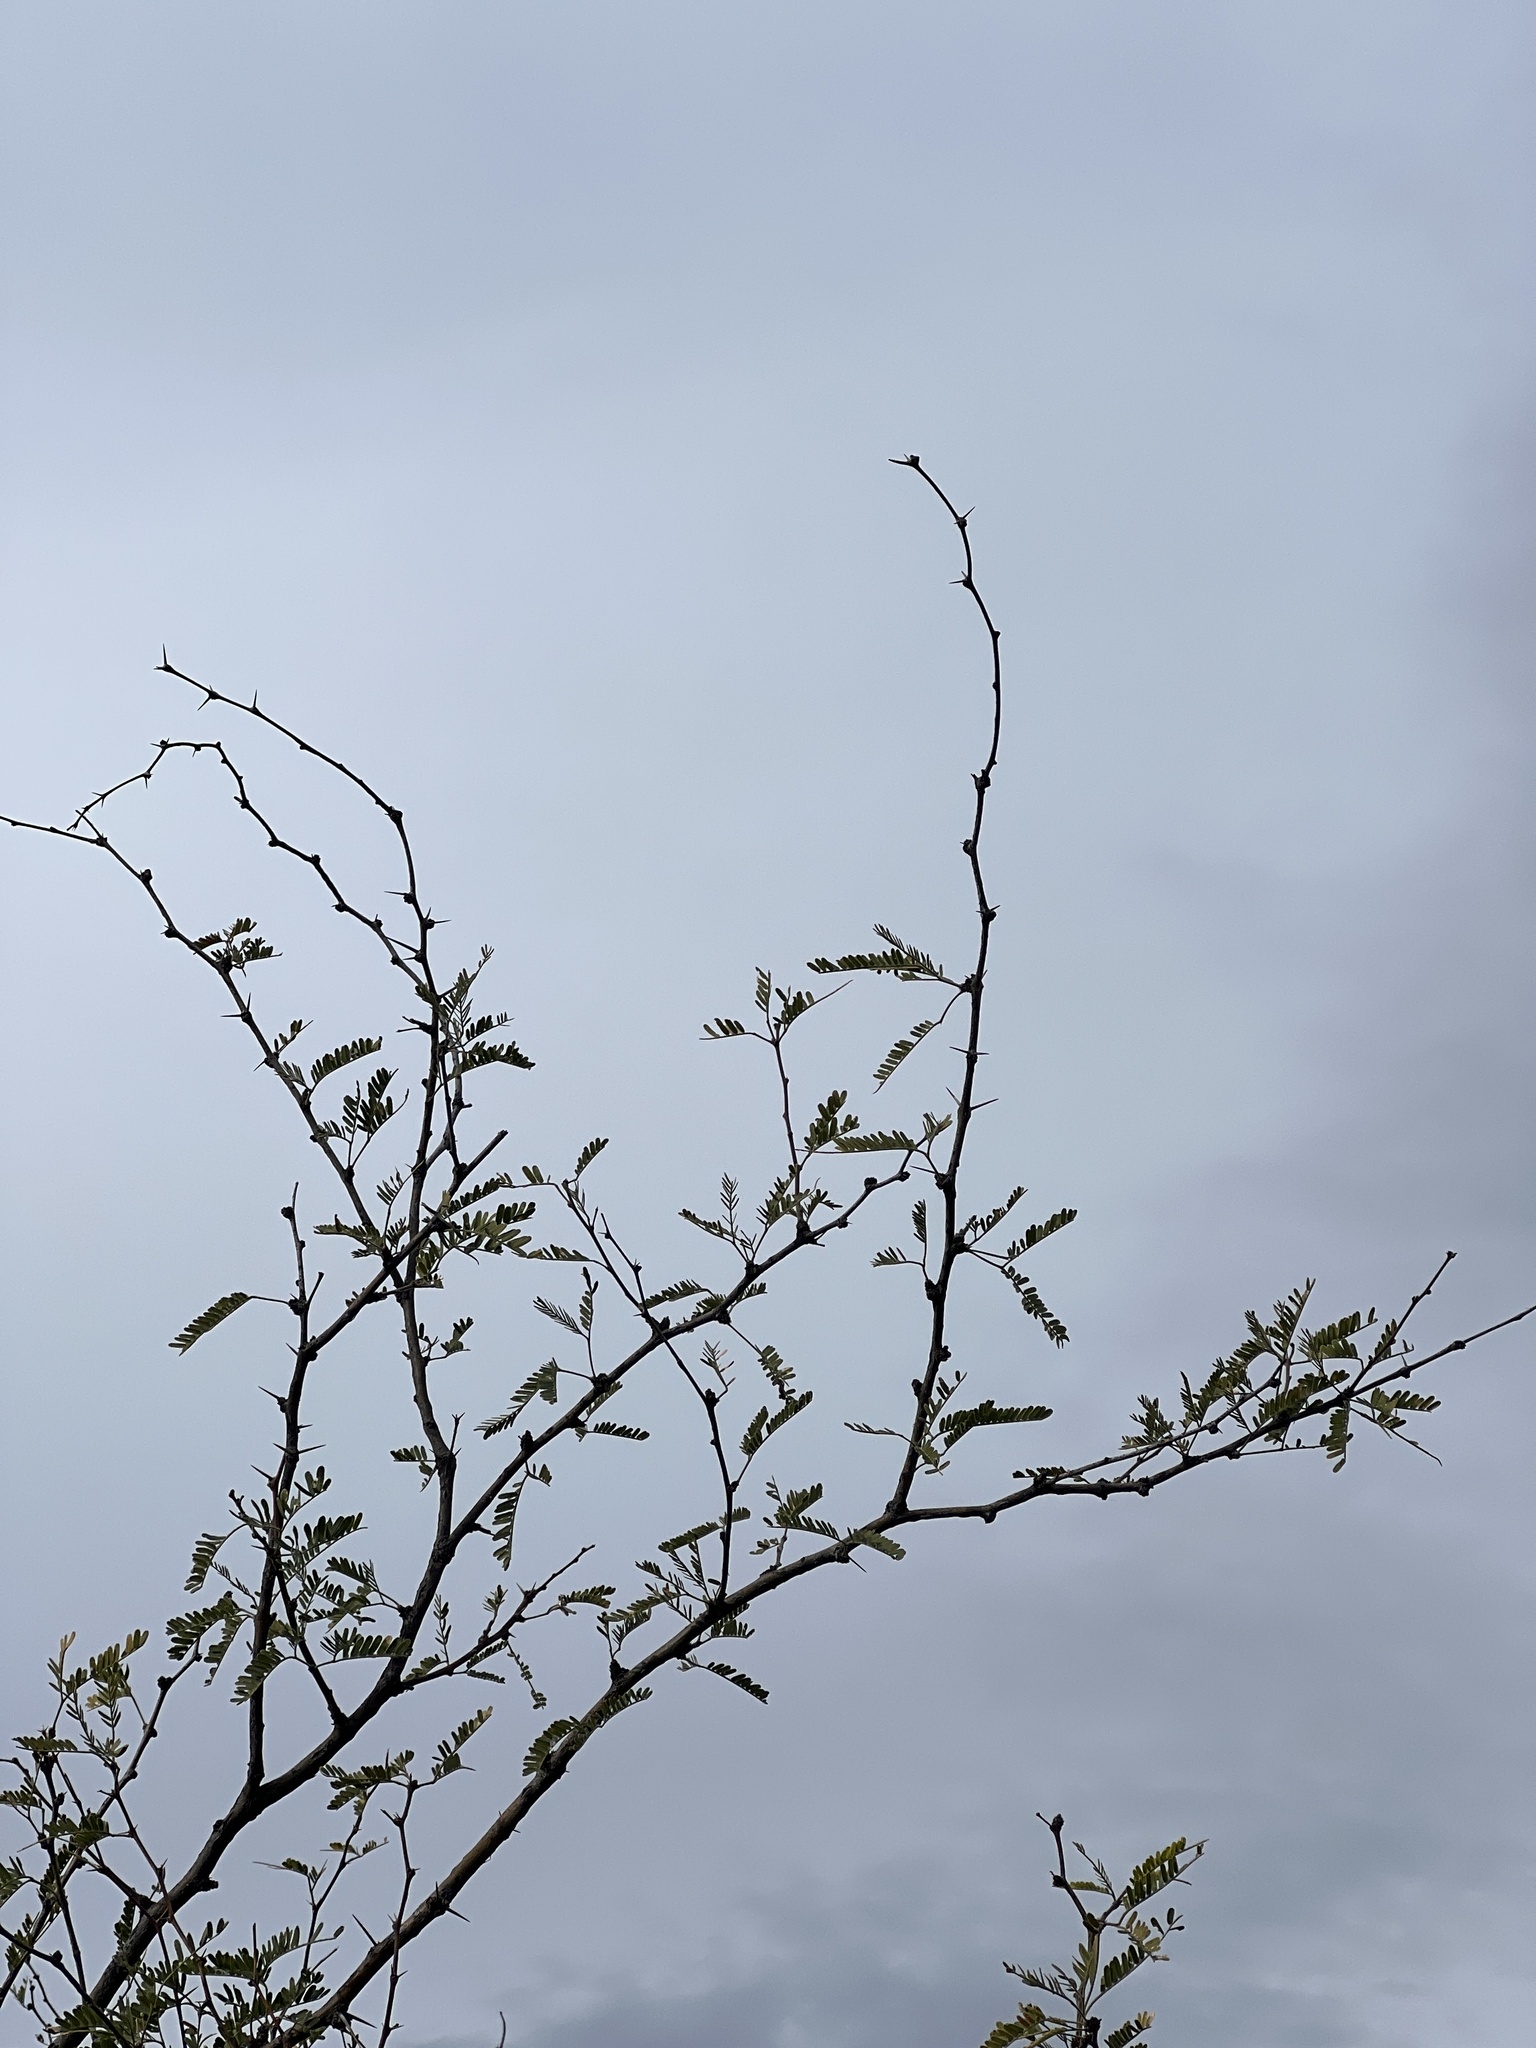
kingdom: Plantae
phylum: Tracheophyta
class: Magnoliopsida
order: Fabales
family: Fabaceae
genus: Prosopis
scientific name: Prosopis velutina
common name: Velvet mesquite
